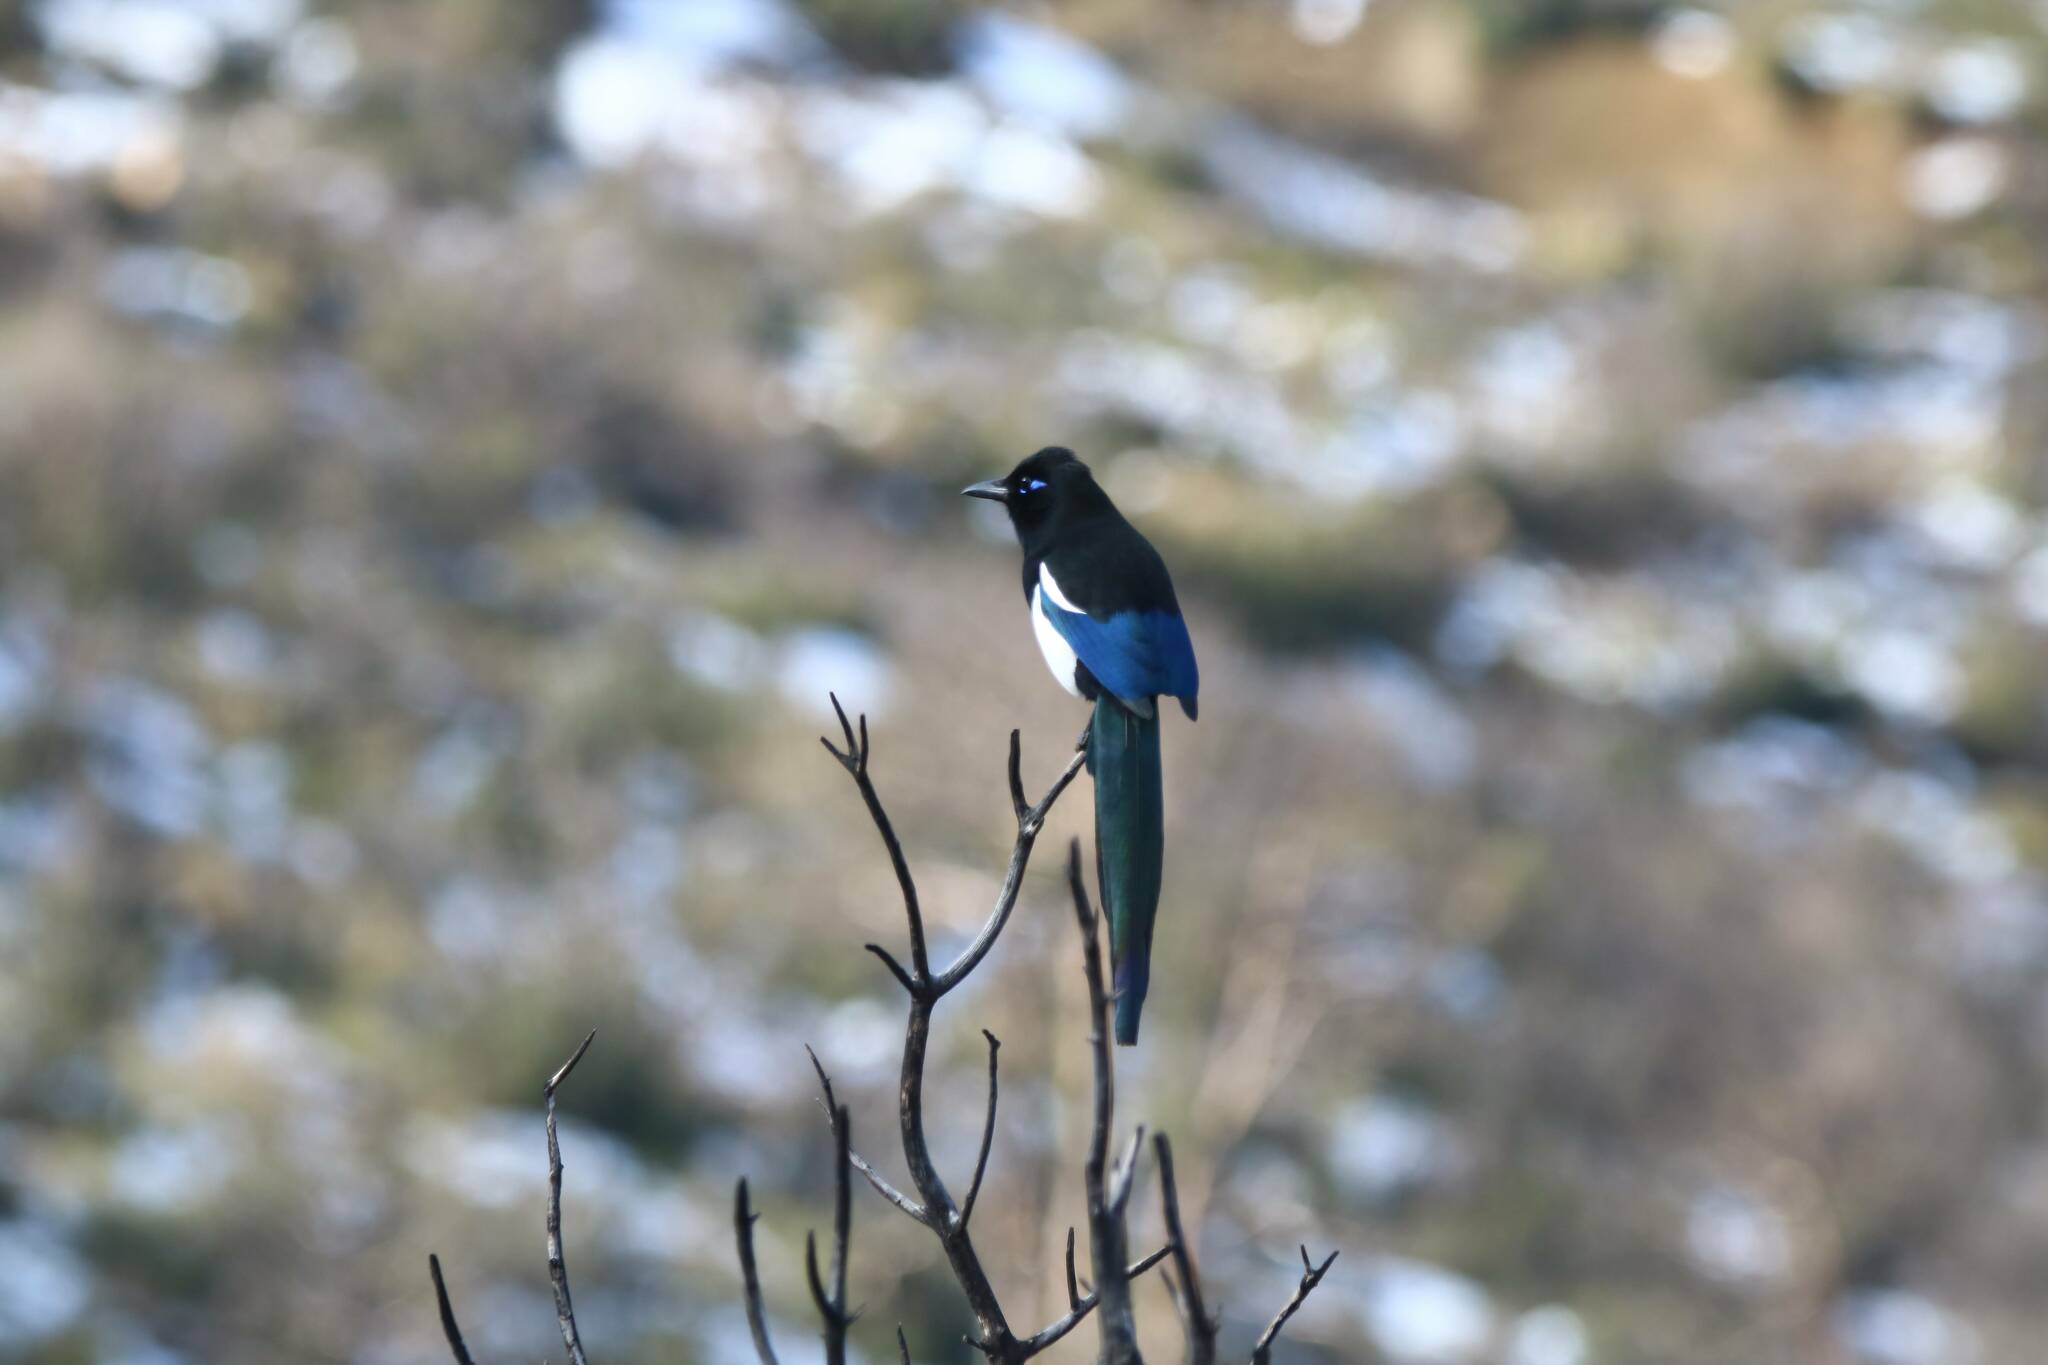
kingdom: Animalia
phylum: Chordata
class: Aves
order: Passeriformes
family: Corvidae
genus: Pica
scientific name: Pica mauritanica
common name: Maghreb magpie
